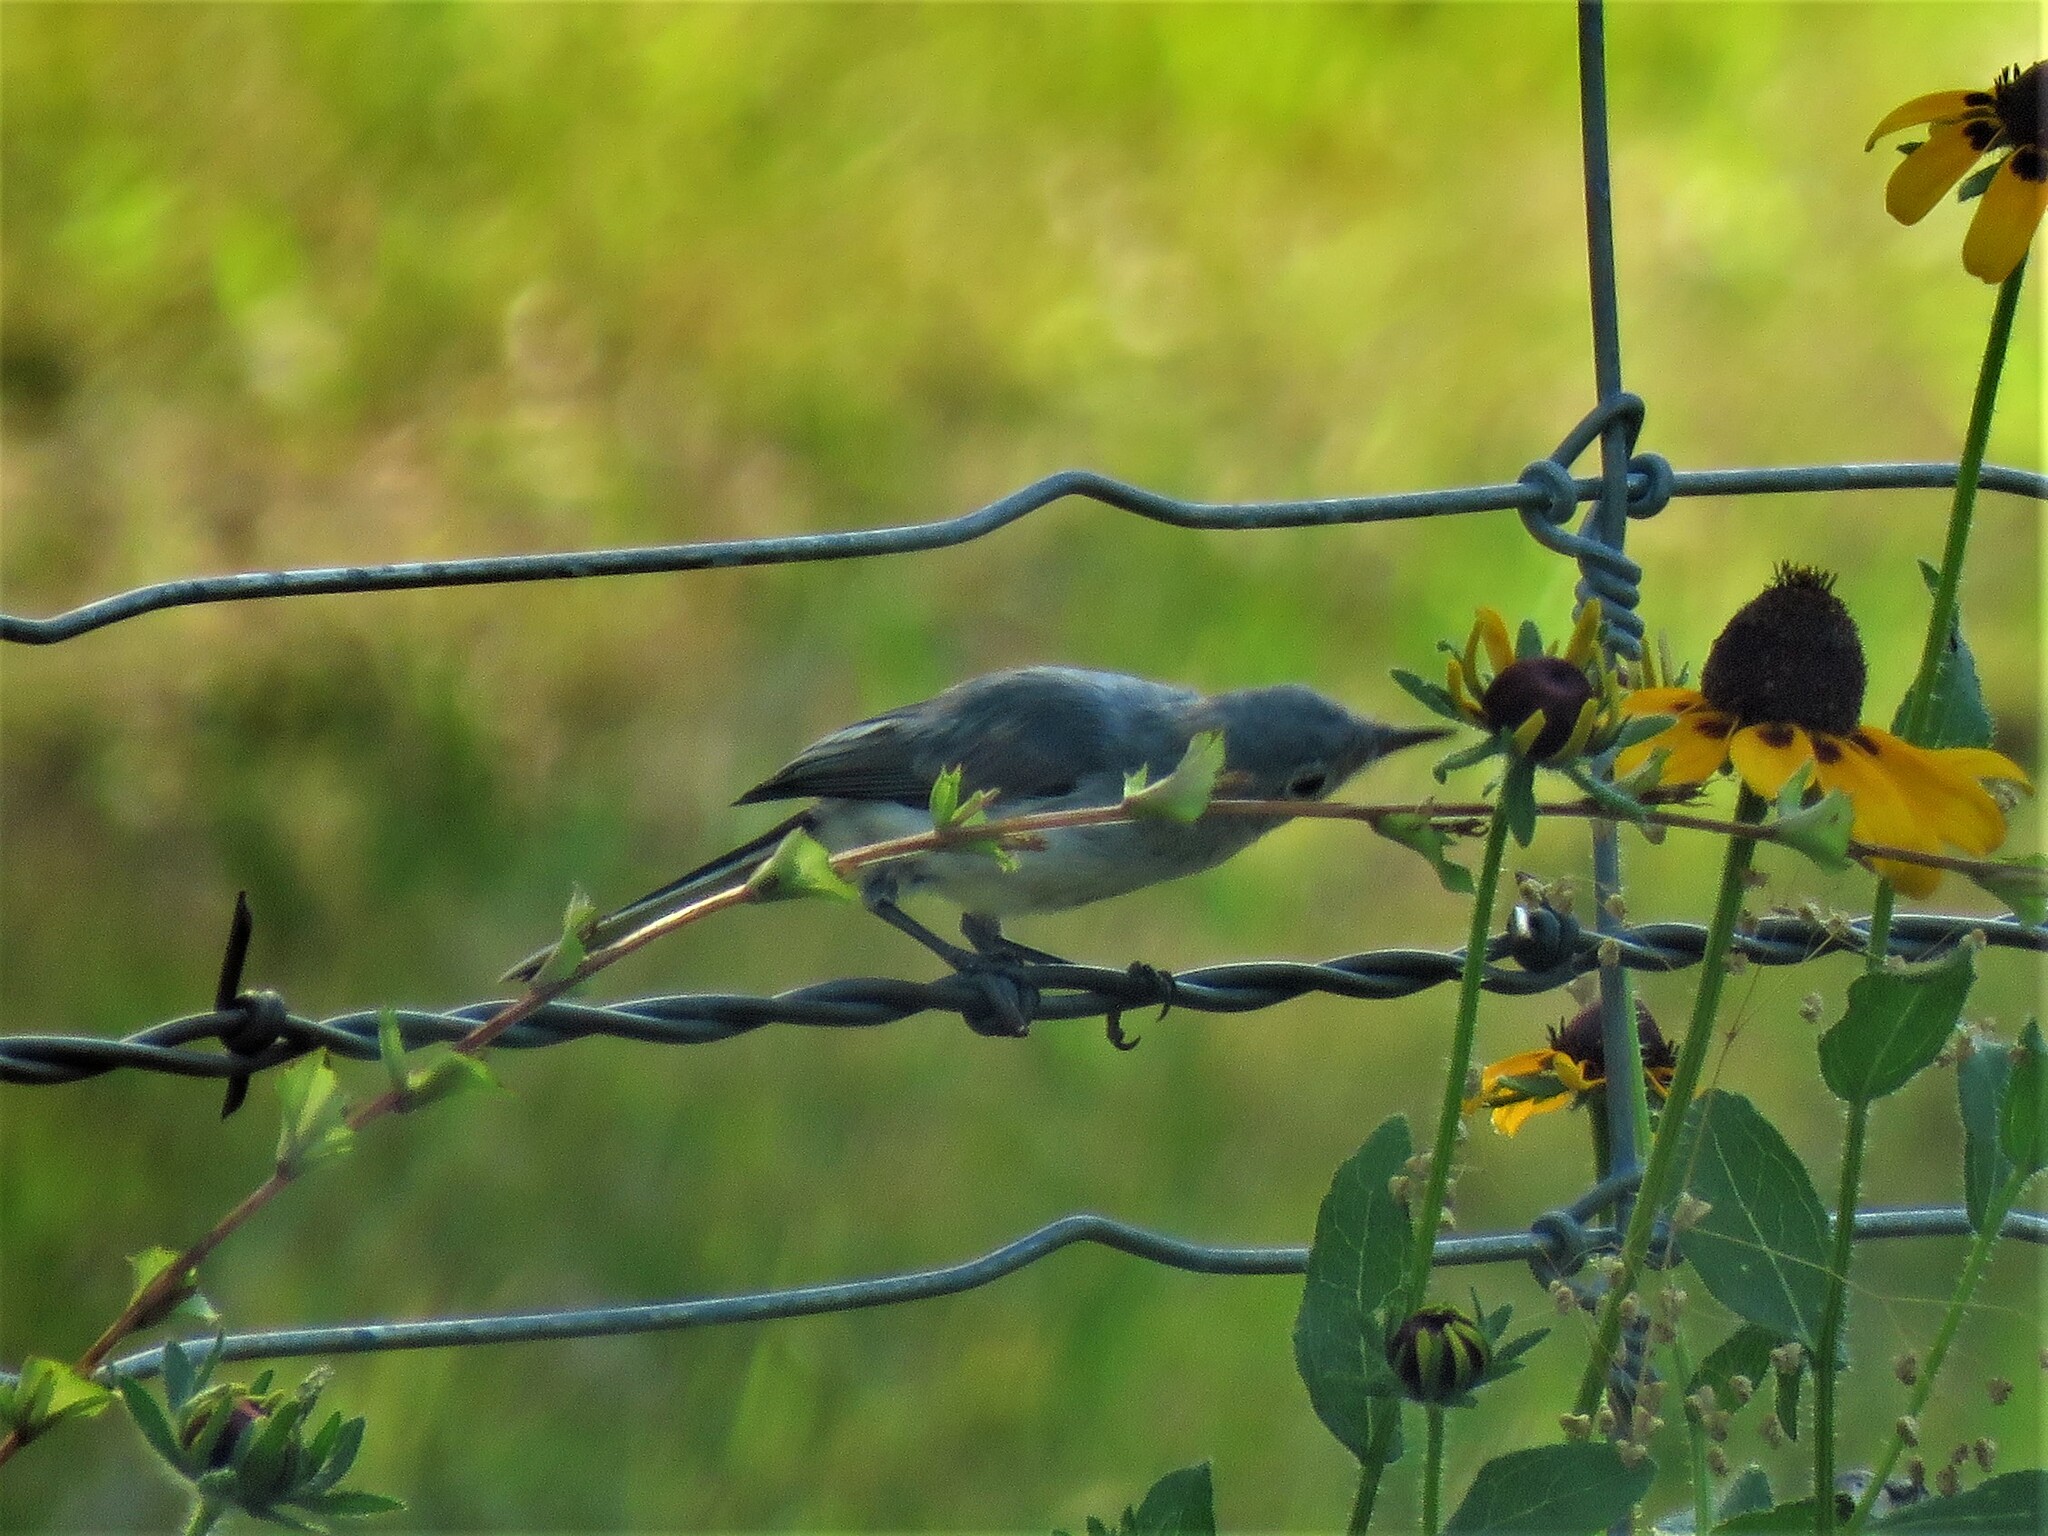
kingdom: Animalia
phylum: Chordata
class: Aves
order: Passeriformes
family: Polioptilidae
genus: Polioptila
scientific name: Polioptila caerulea
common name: Blue-gray gnatcatcher
